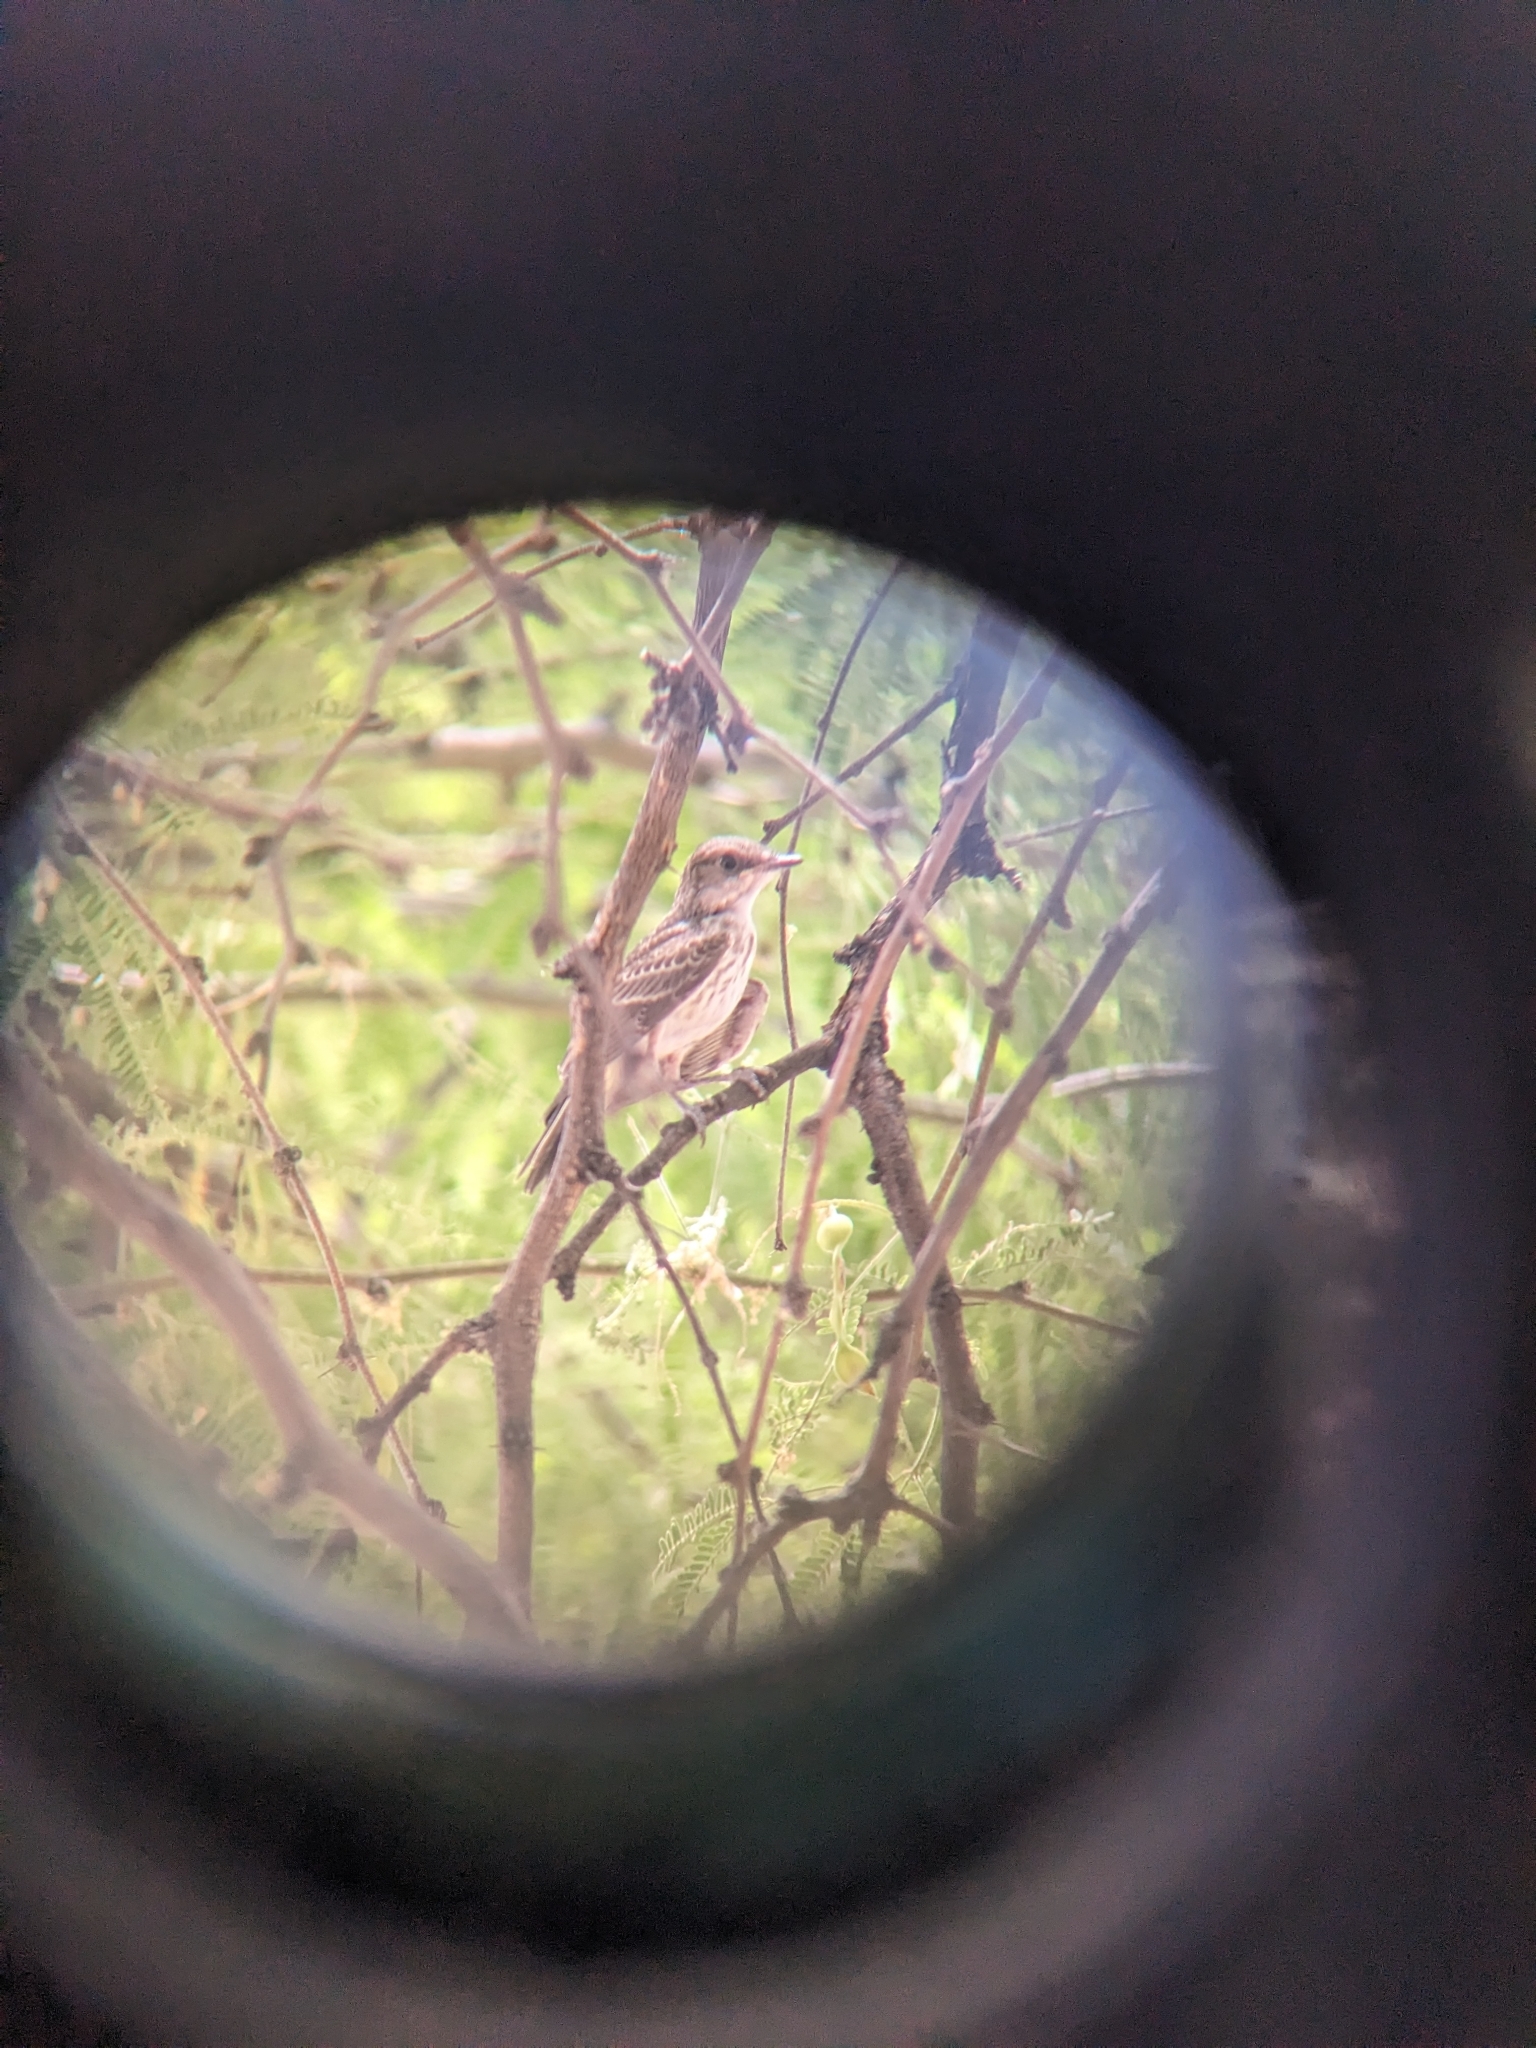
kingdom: Animalia
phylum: Chordata
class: Aves
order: Passeriformes
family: Tyrannidae
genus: Pyrocephalus
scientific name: Pyrocephalus rubinus
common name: Vermilion flycatcher
